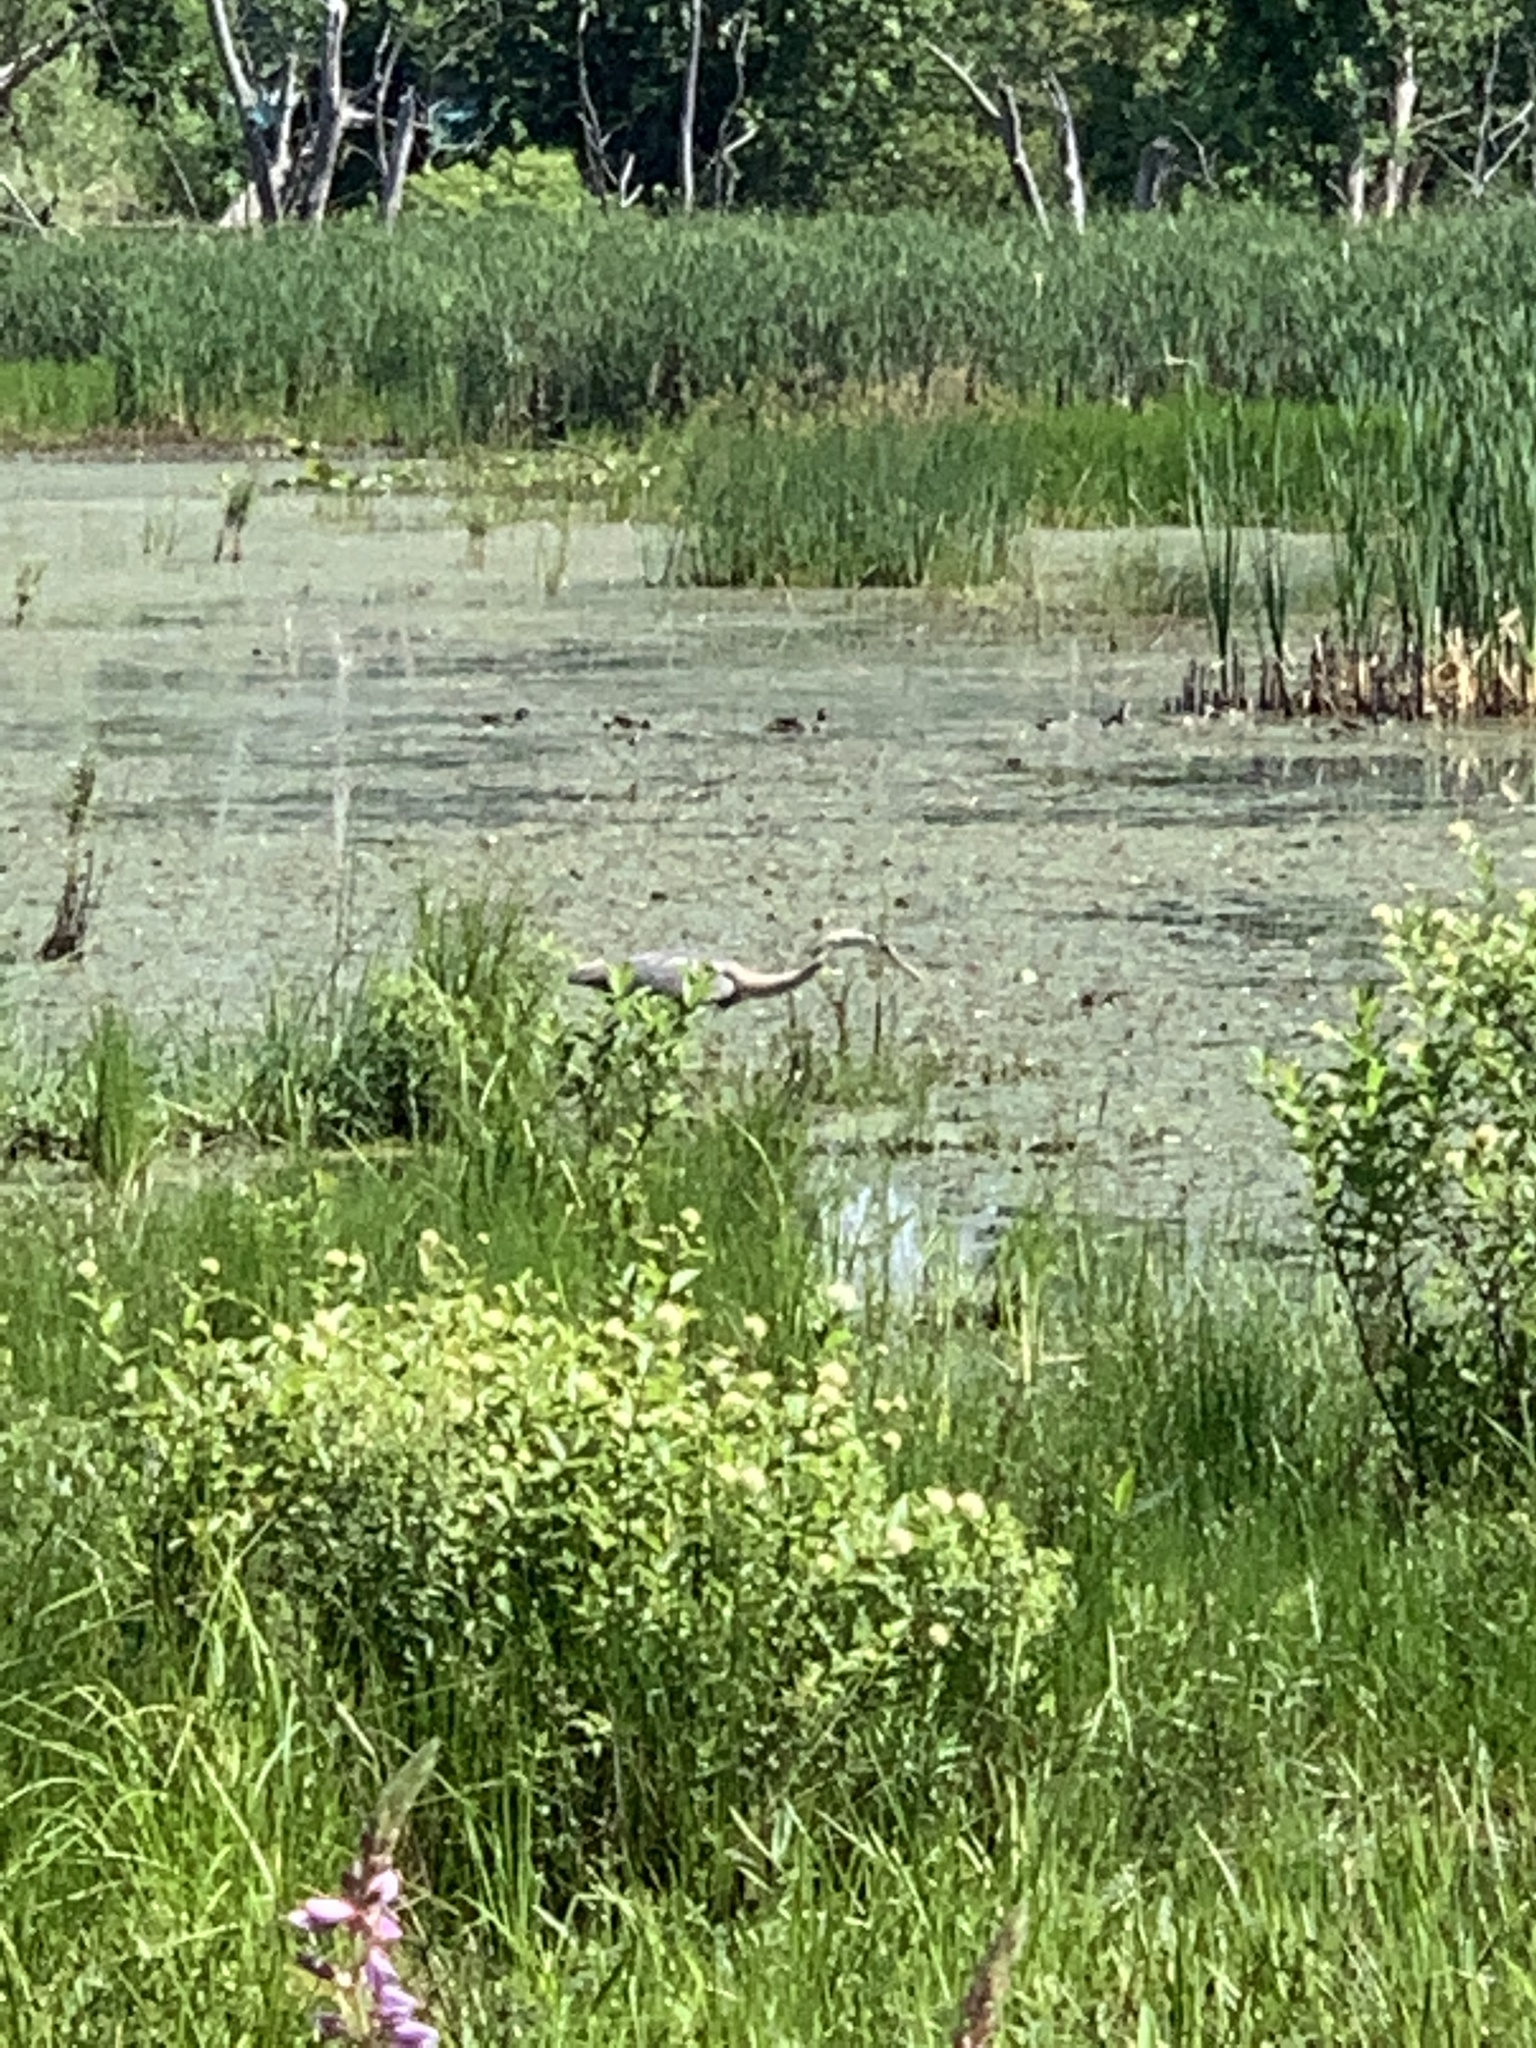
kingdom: Animalia
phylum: Chordata
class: Aves
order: Pelecaniformes
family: Ardeidae
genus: Ardea
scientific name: Ardea herodias
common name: Great blue heron
